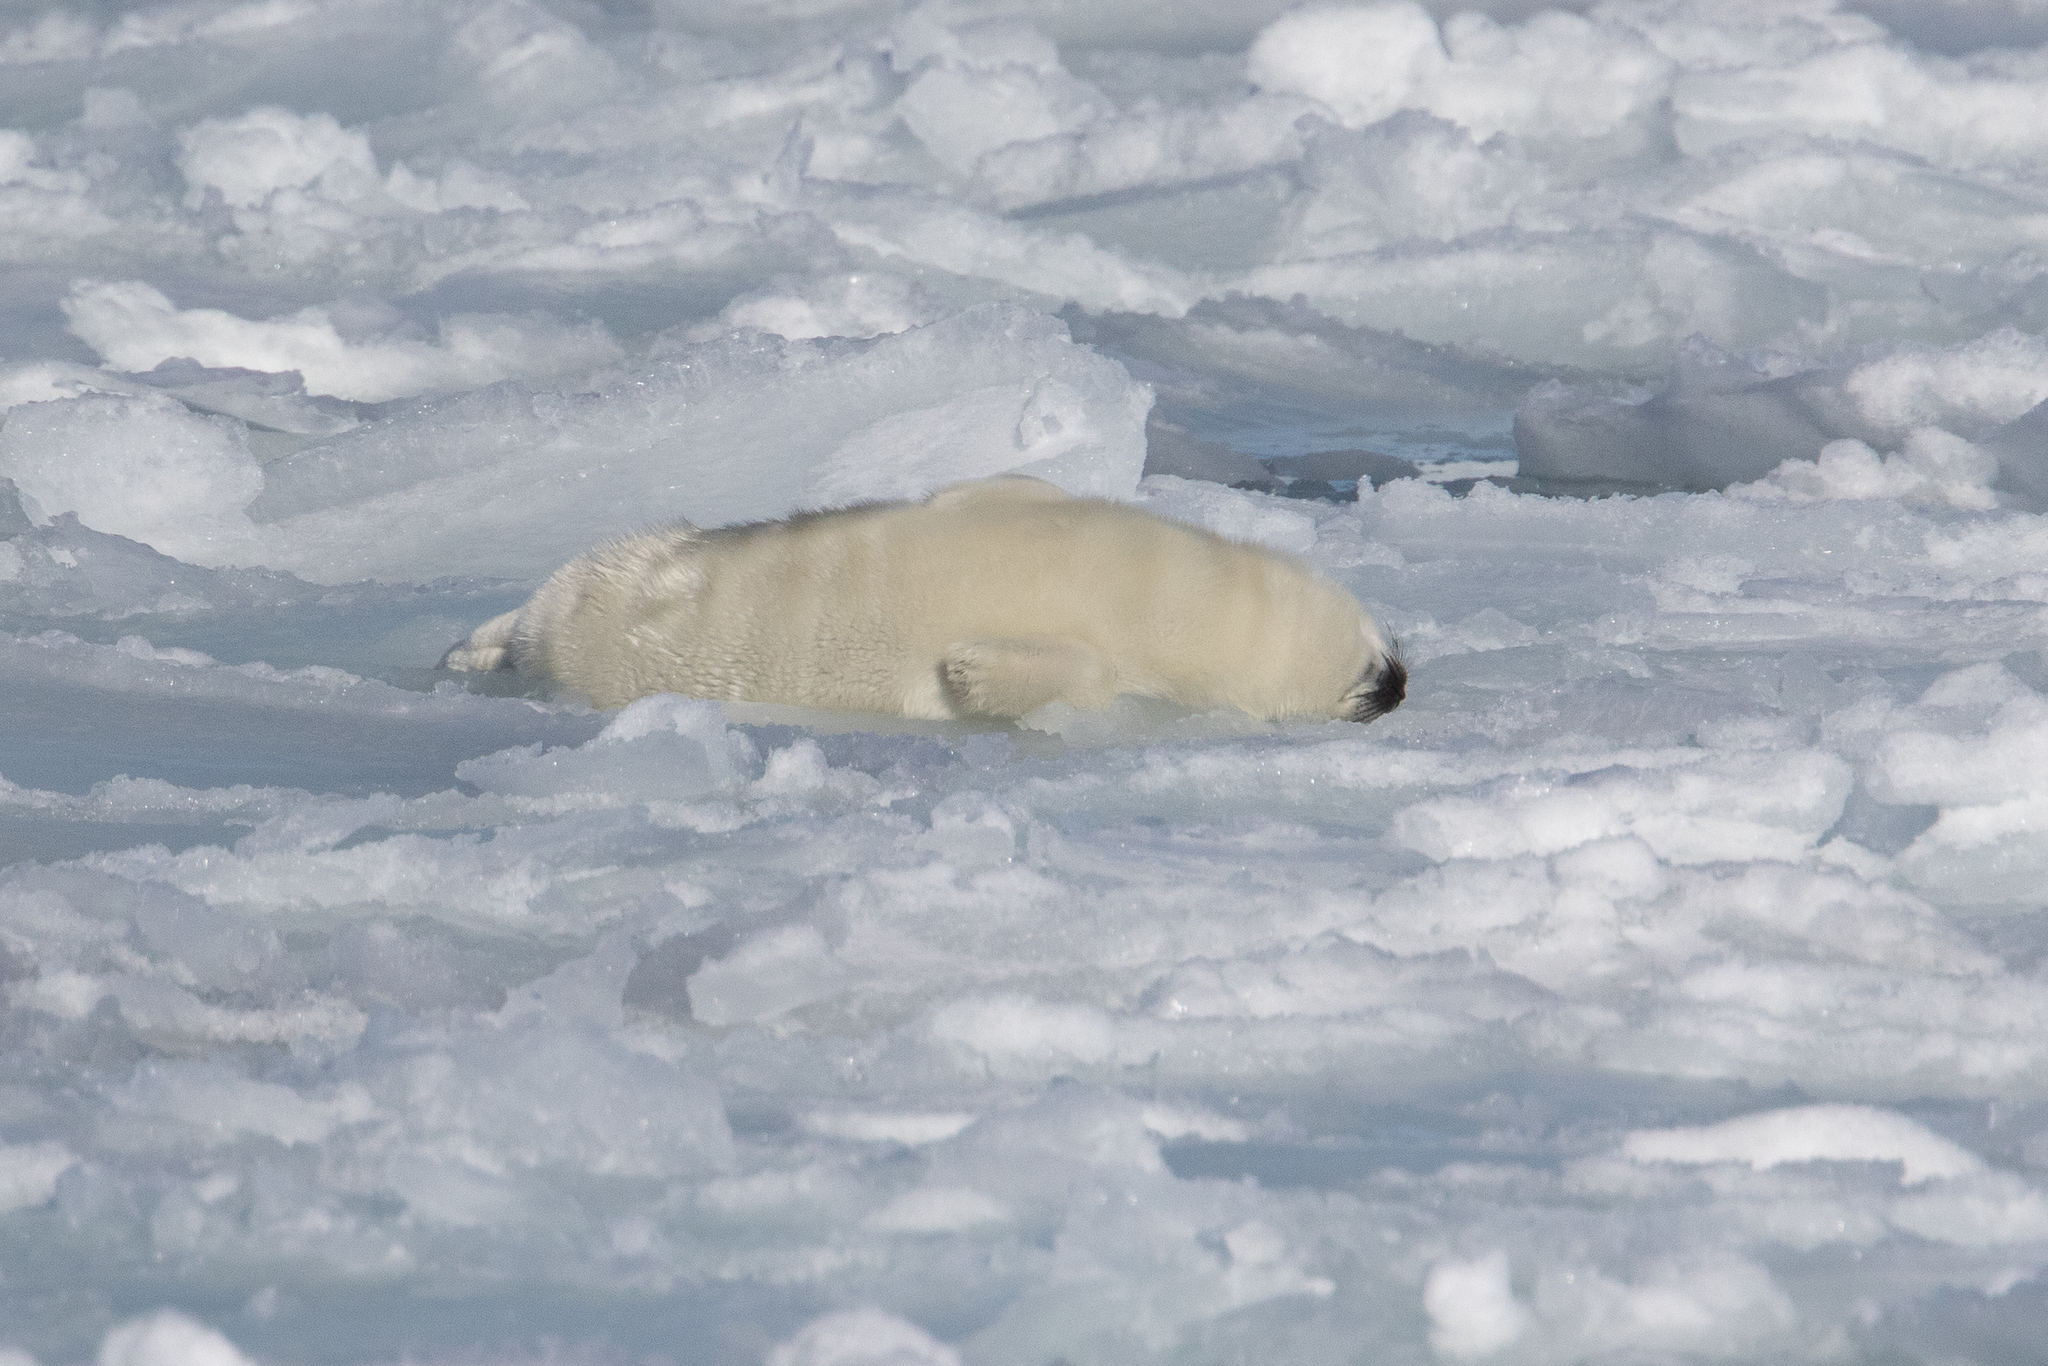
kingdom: Animalia
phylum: Chordata
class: Mammalia
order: Carnivora
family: Phocidae
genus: Pagophilus
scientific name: Pagophilus groenlandicus
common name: Harp seal
